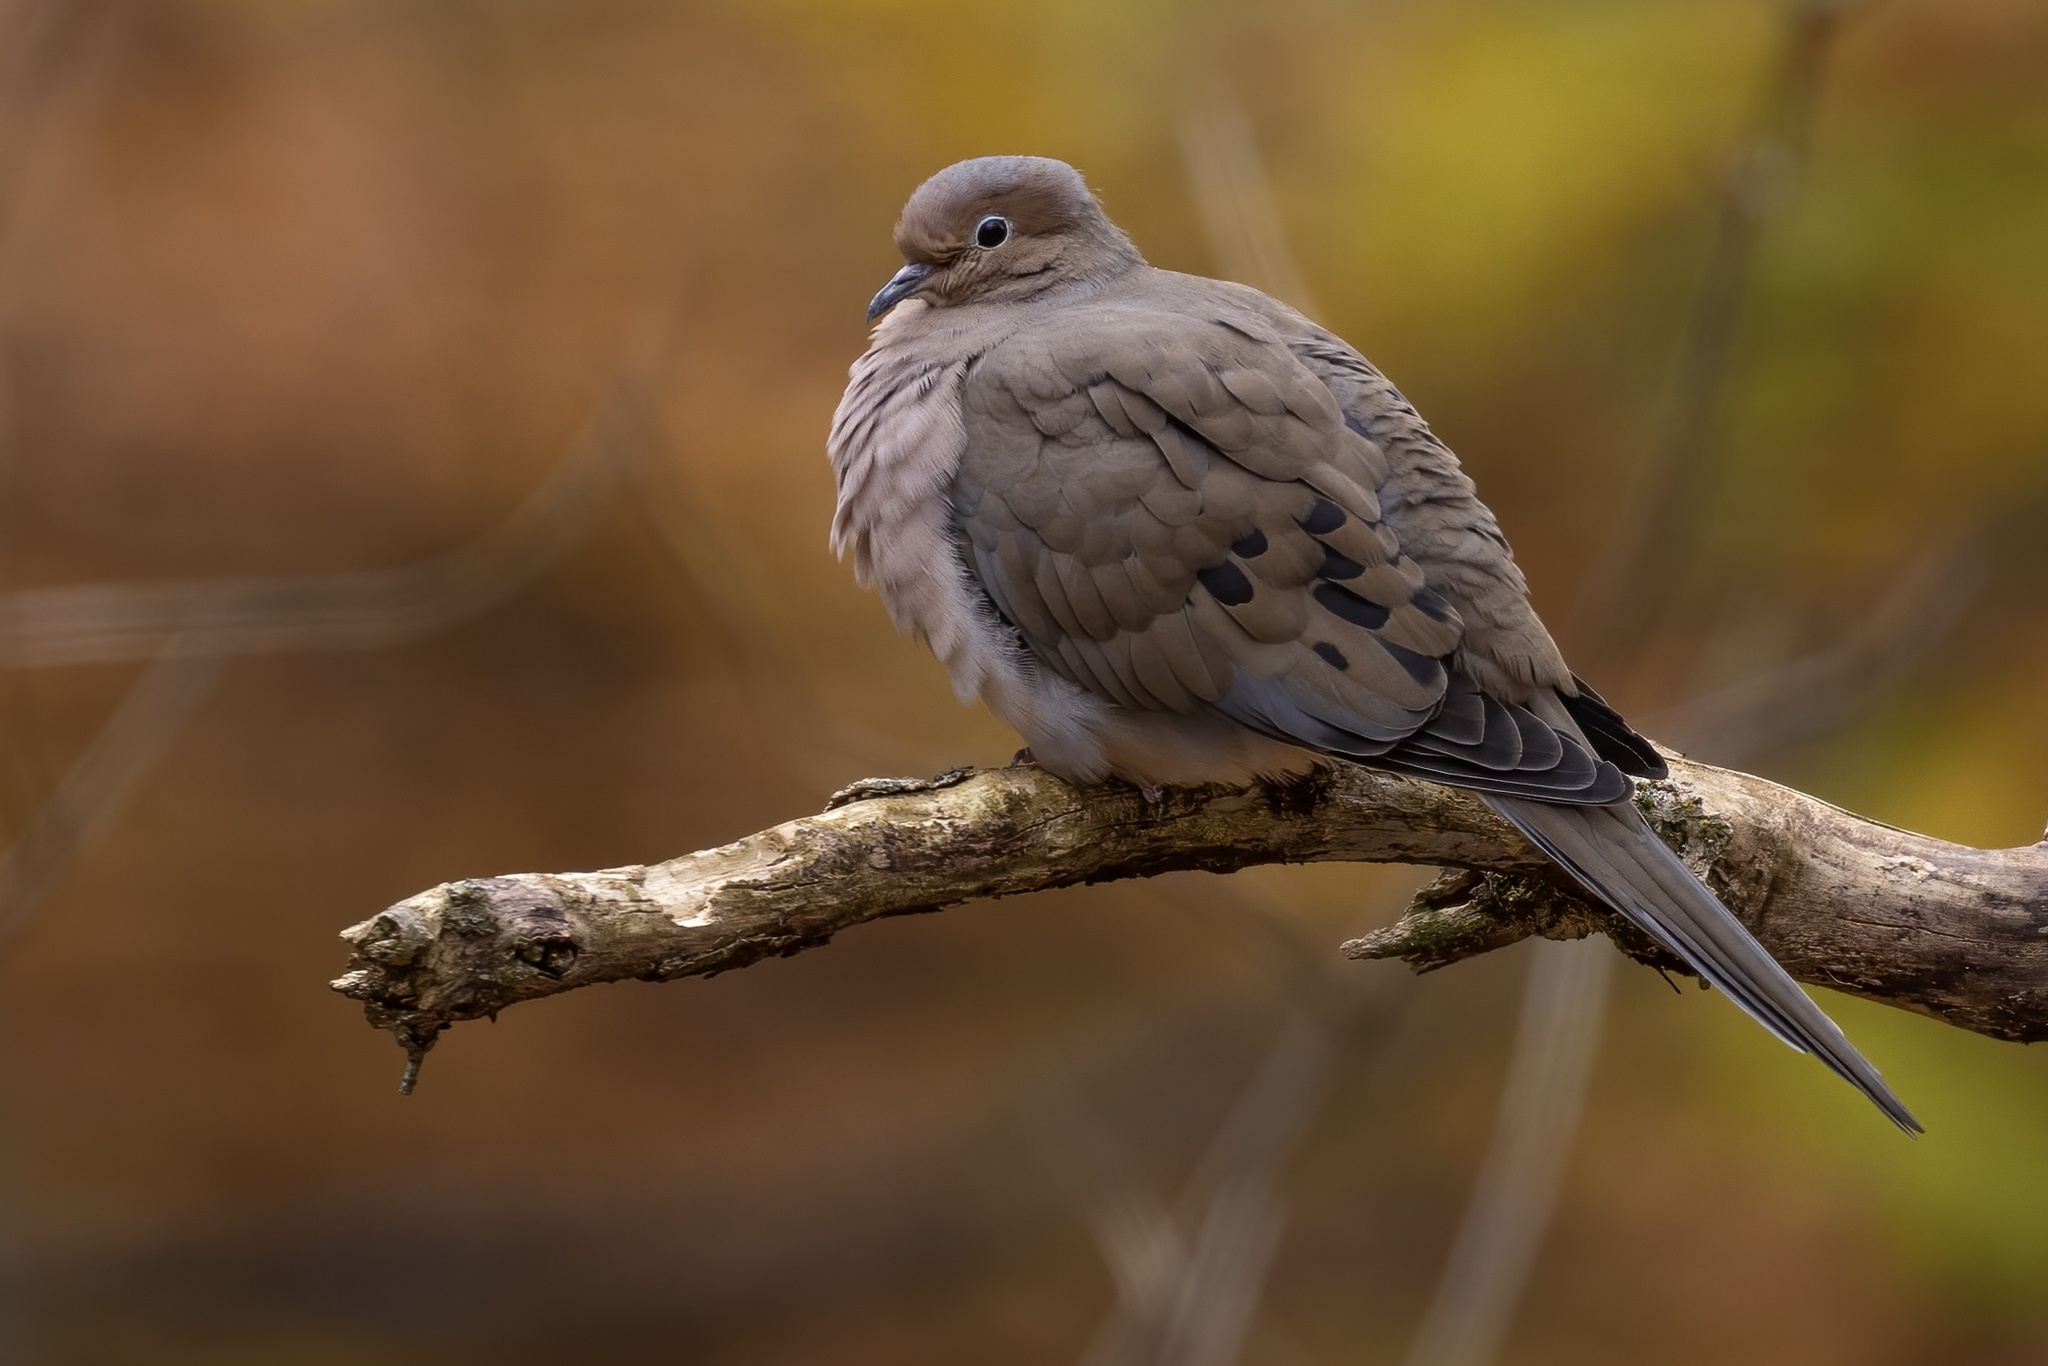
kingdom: Animalia
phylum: Chordata
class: Aves
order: Columbiformes
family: Columbidae
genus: Zenaida
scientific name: Zenaida macroura
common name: Mourning dove
